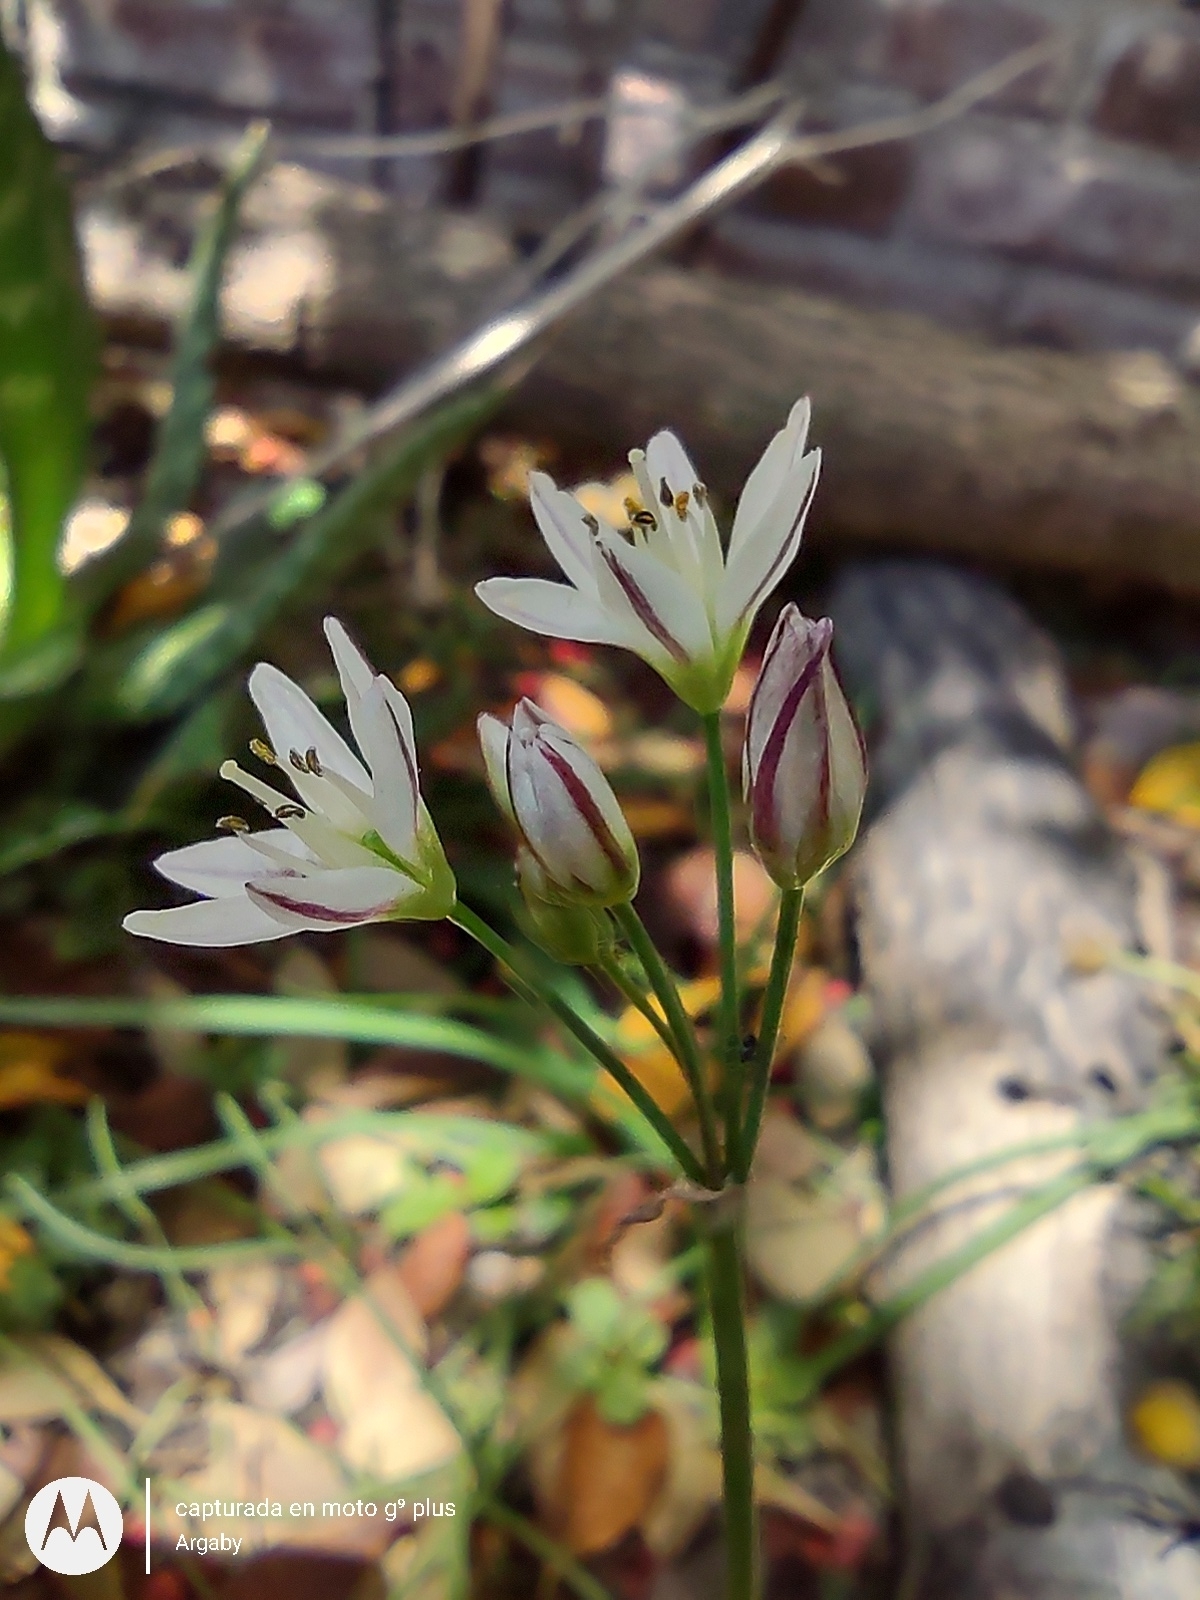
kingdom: Plantae
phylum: Tracheophyta
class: Liliopsida
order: Asparagales
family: Amaryllidaceae
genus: Nothoscordum
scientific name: Nothoscordum gracile
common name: Slender false garlic
